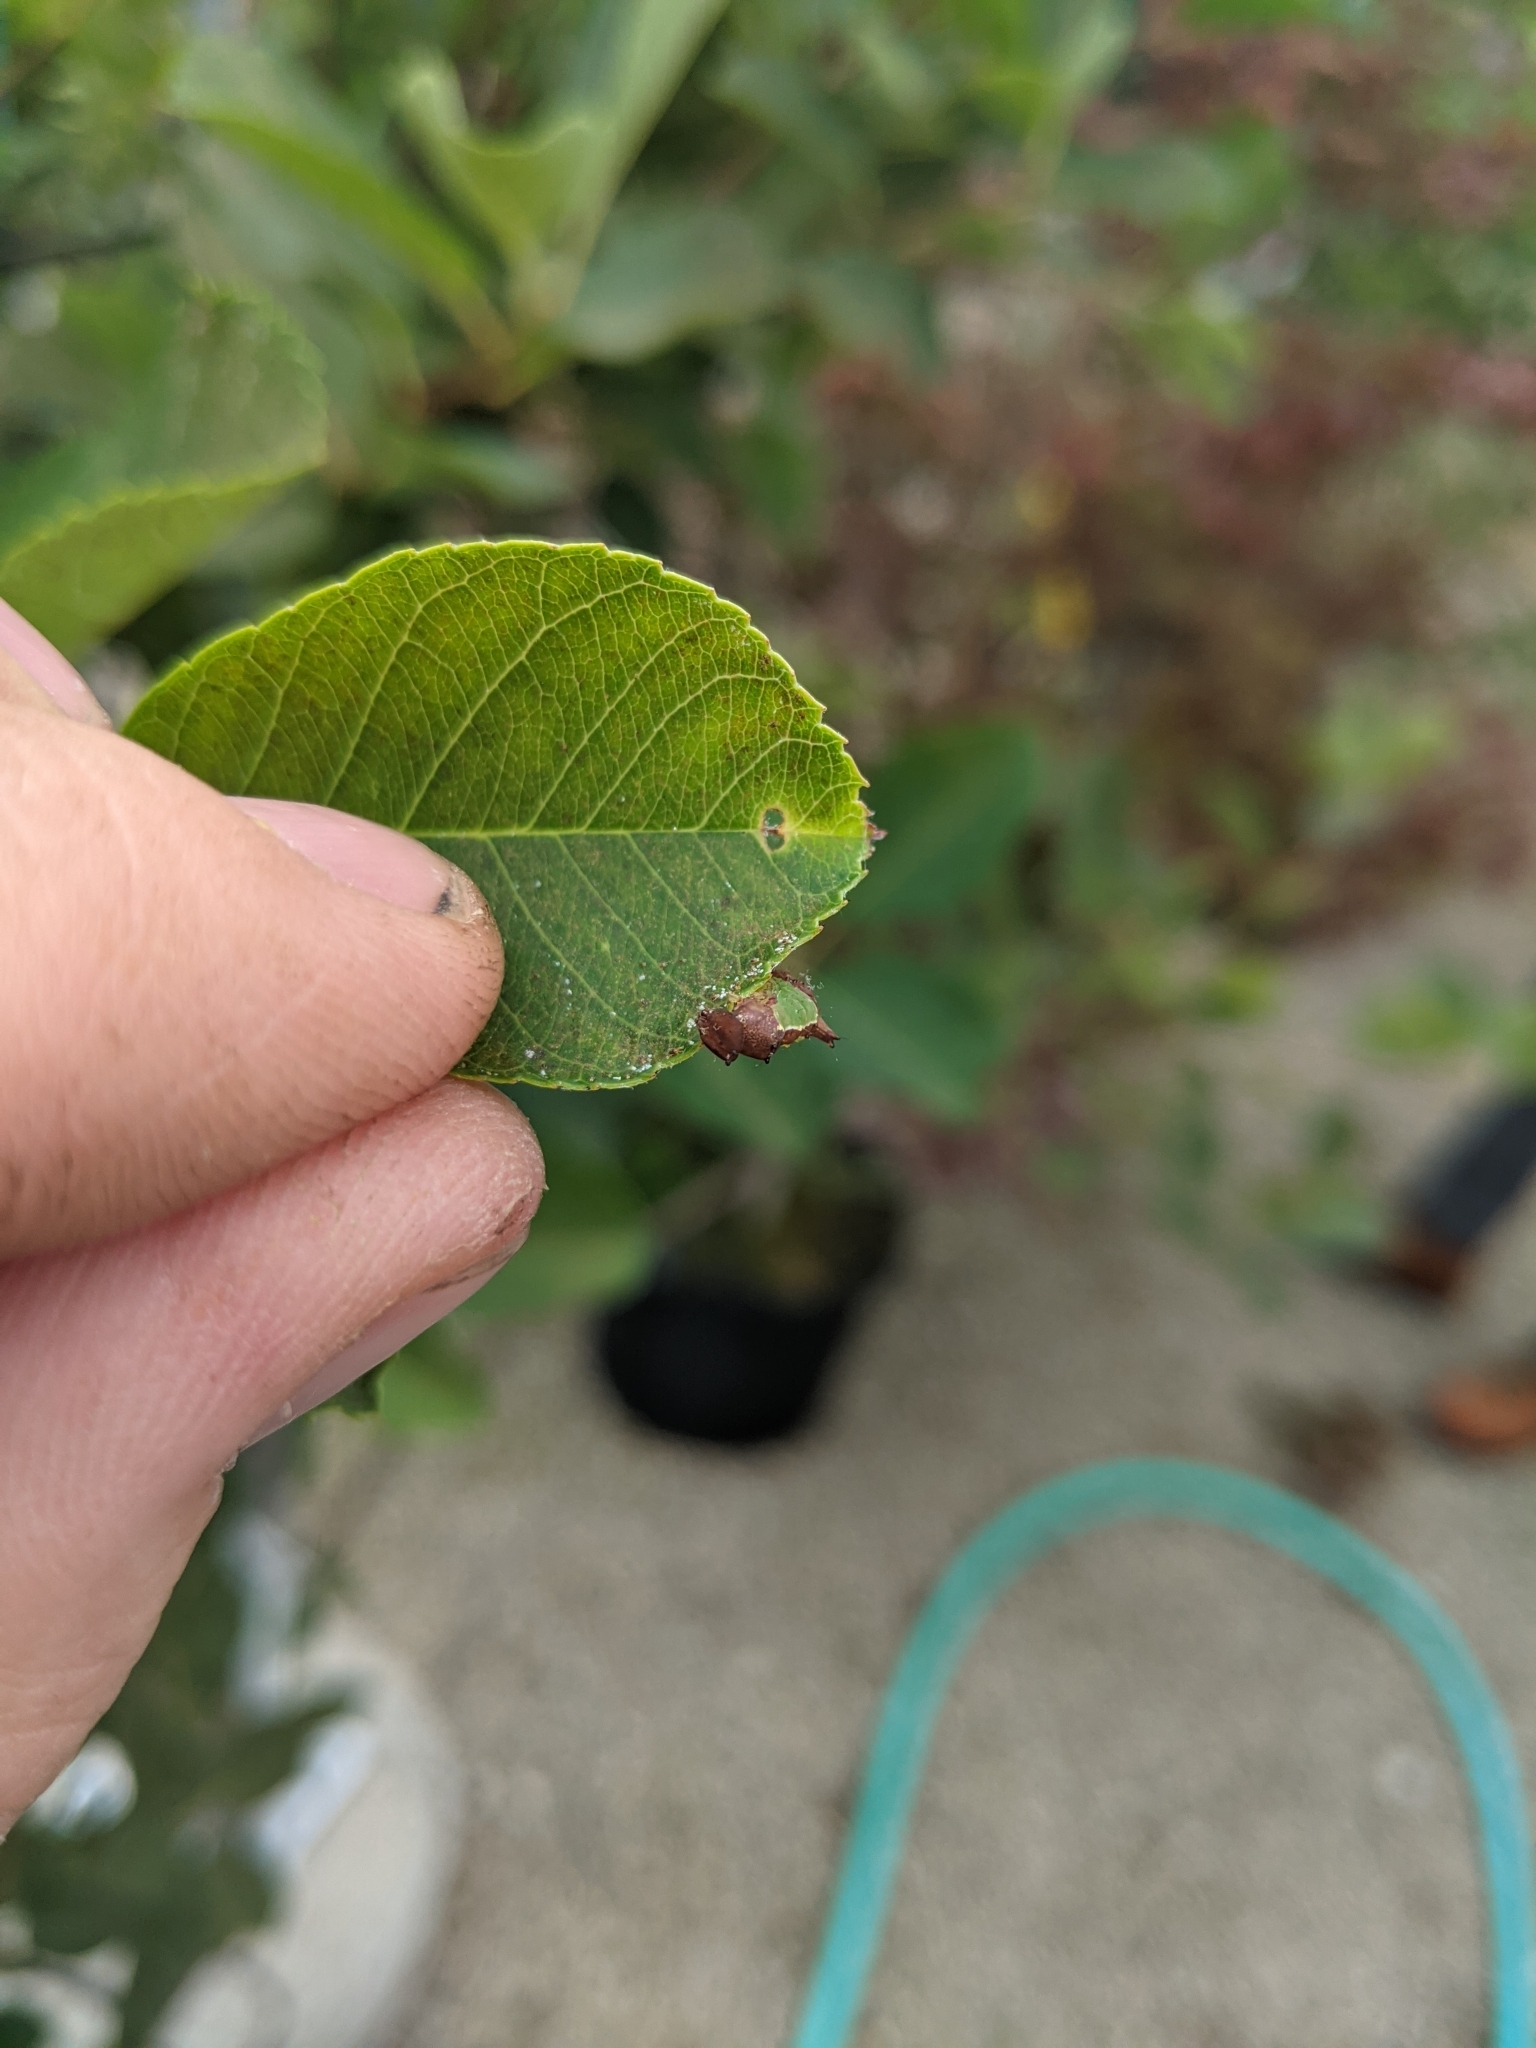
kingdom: Animalia
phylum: Arthropoda
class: Insecta
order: Lepidoptera
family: Notodontidae
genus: Schizura
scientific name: Schizura
